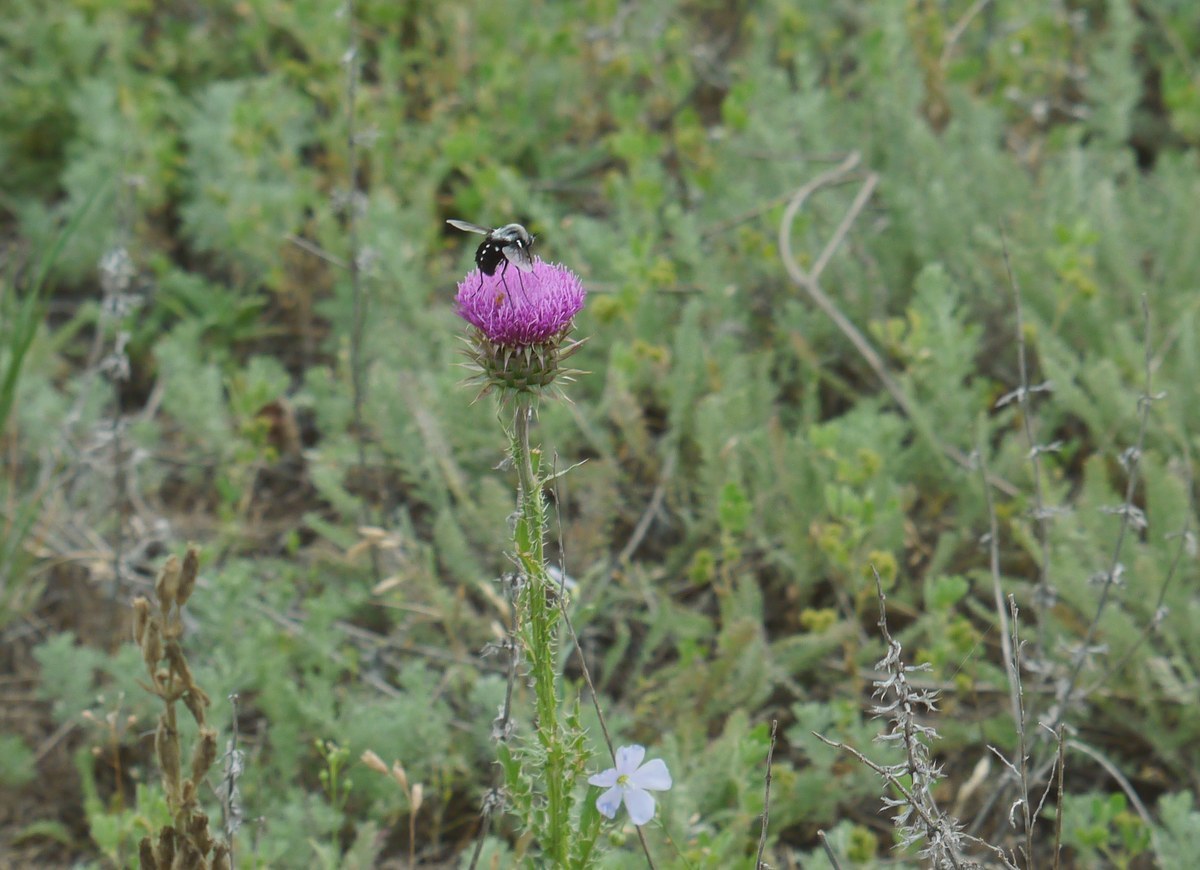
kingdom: Animalia
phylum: Arthropoda
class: Insecta
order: Diptera
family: Bombyliidae
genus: Bombomyia
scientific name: Bombomyia vertebralis
